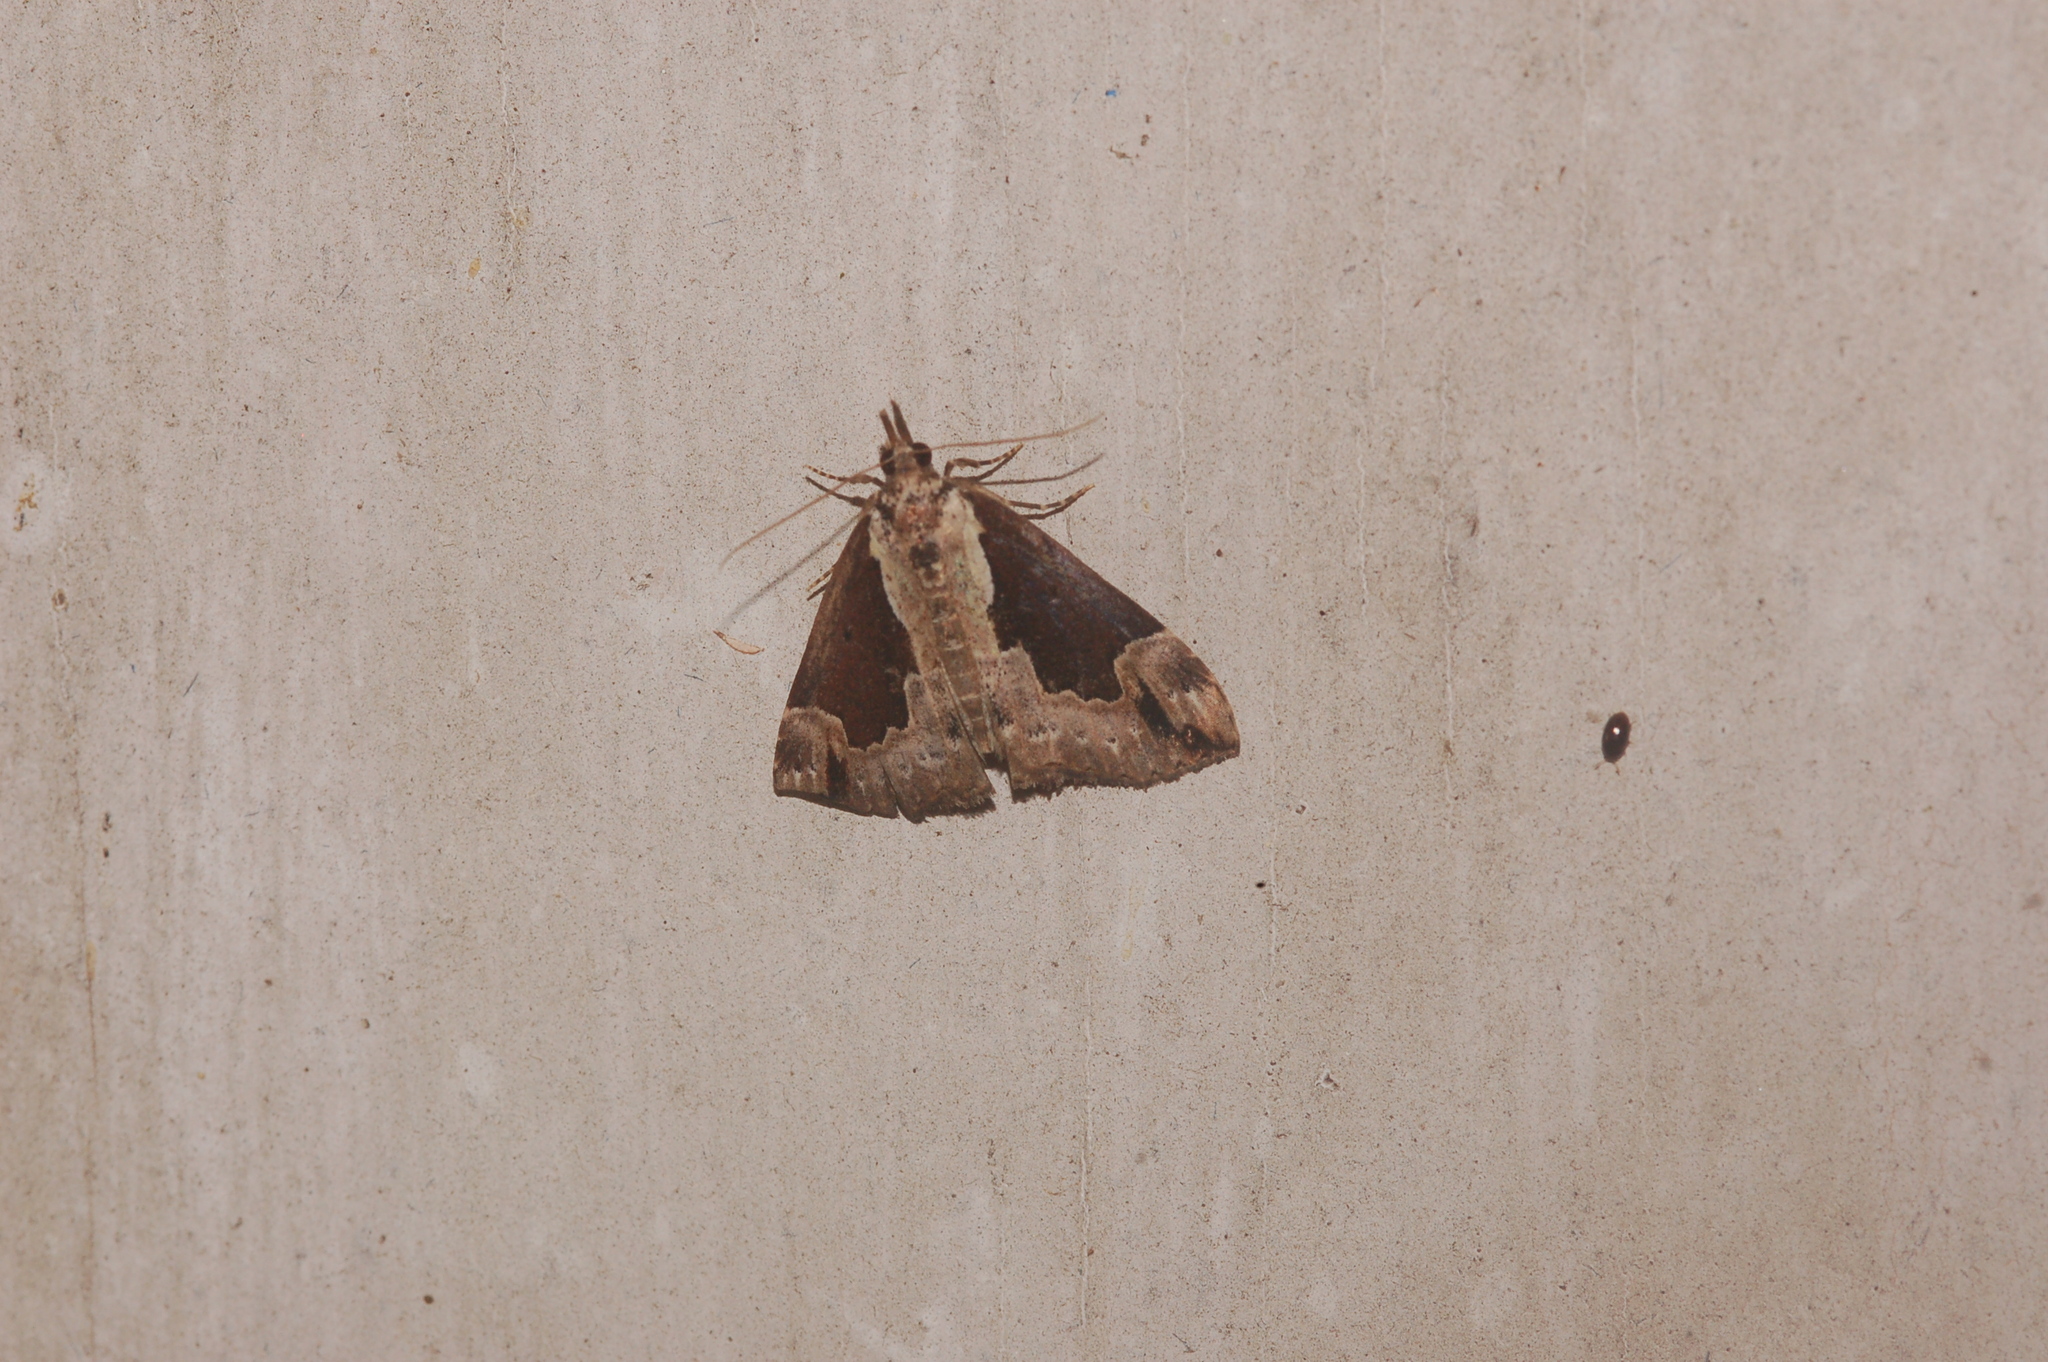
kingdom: Animalia
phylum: Arthropoda
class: Insecta
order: Lepidoptera
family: Erebidae
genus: Hypena
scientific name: Hypena baltimoralis
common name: Baltimore snout
